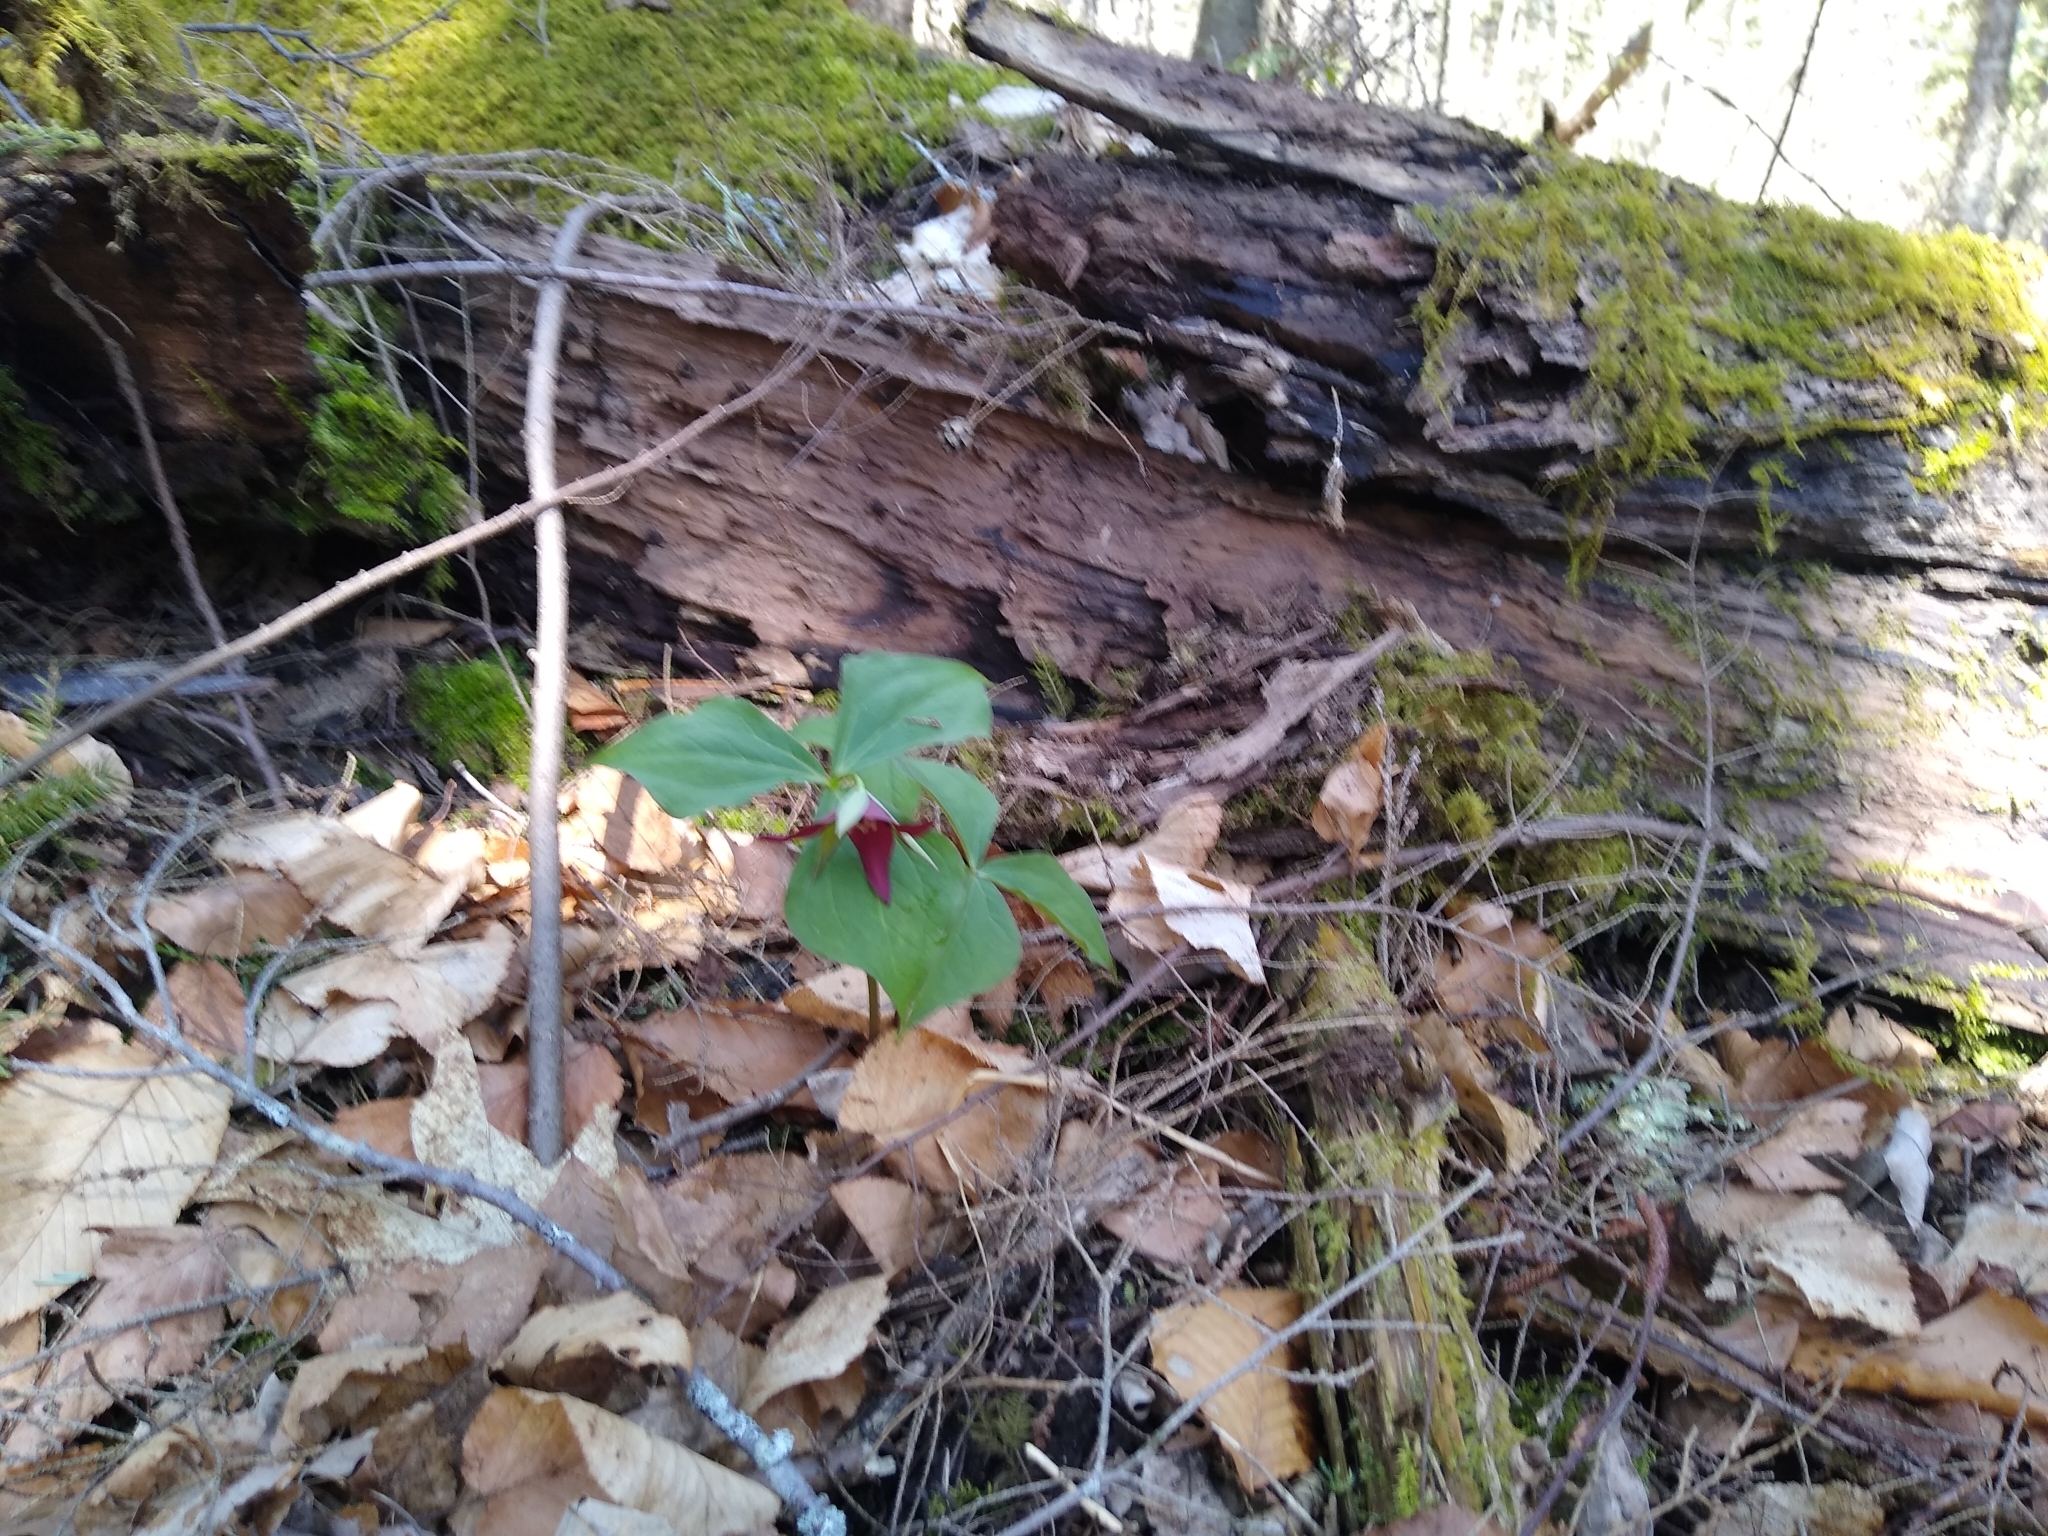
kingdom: Plantae
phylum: Tracheophyta
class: Liliopsida
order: Liliales
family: Melanthiaceae
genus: Trillium
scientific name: Trillium erectum
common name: Purple trillium
